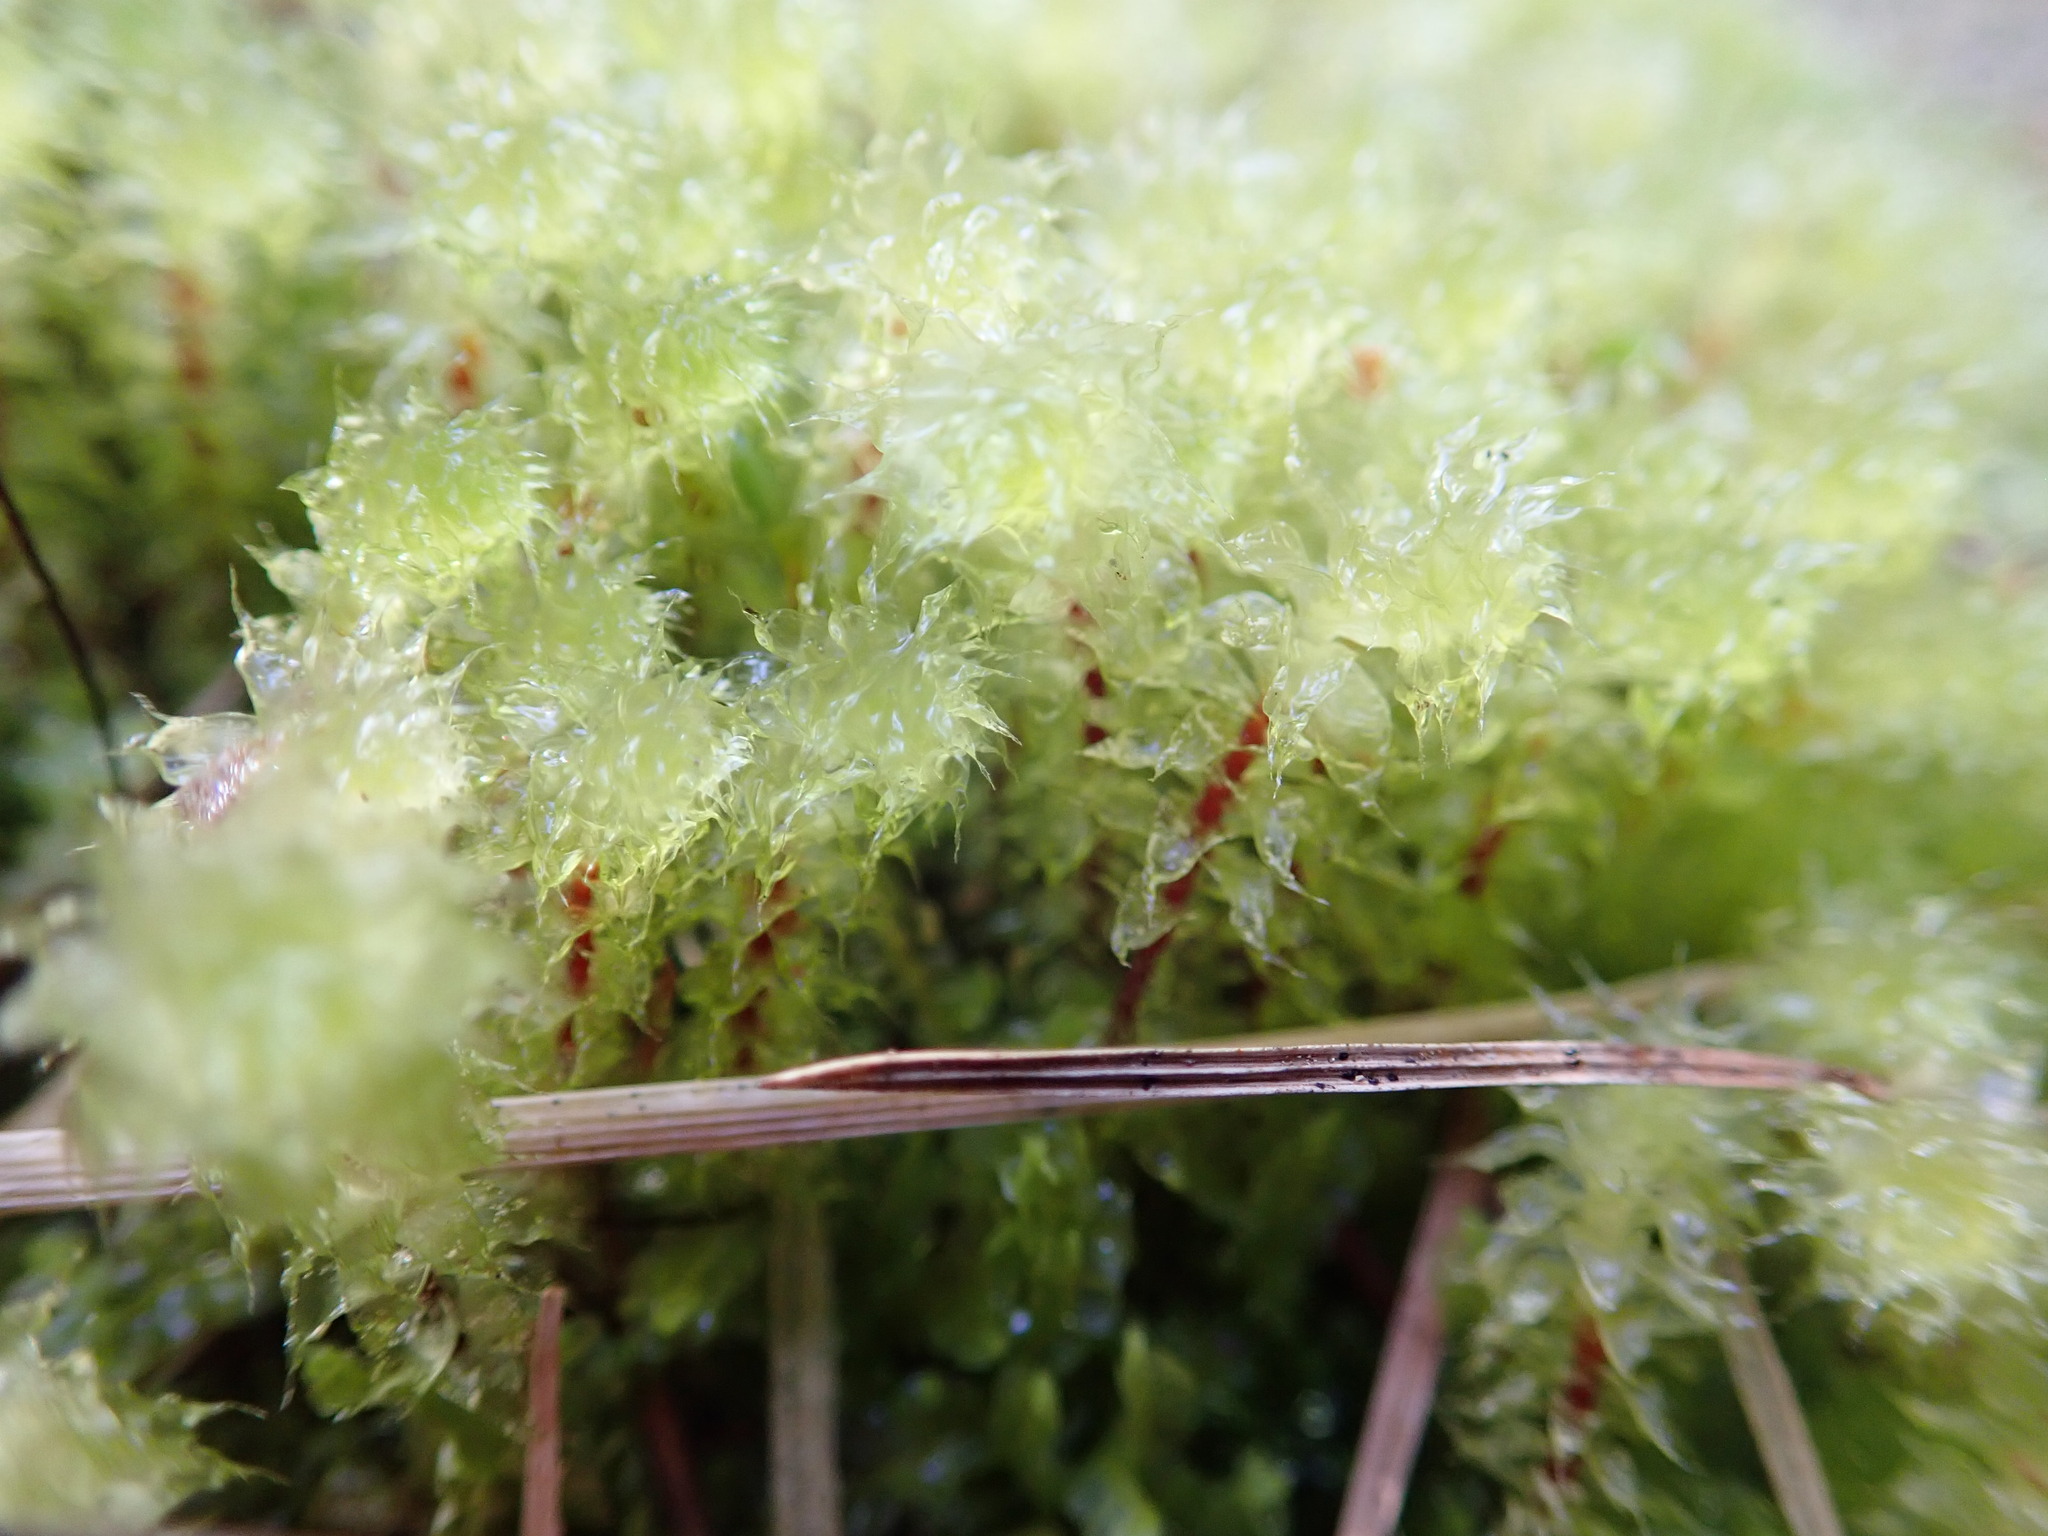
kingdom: Plantae
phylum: Bryophyta
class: Bryopsida
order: Ptychomniales
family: Ptychomniaceae
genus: Ptychomnion
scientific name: Ptychomnion aciculare
